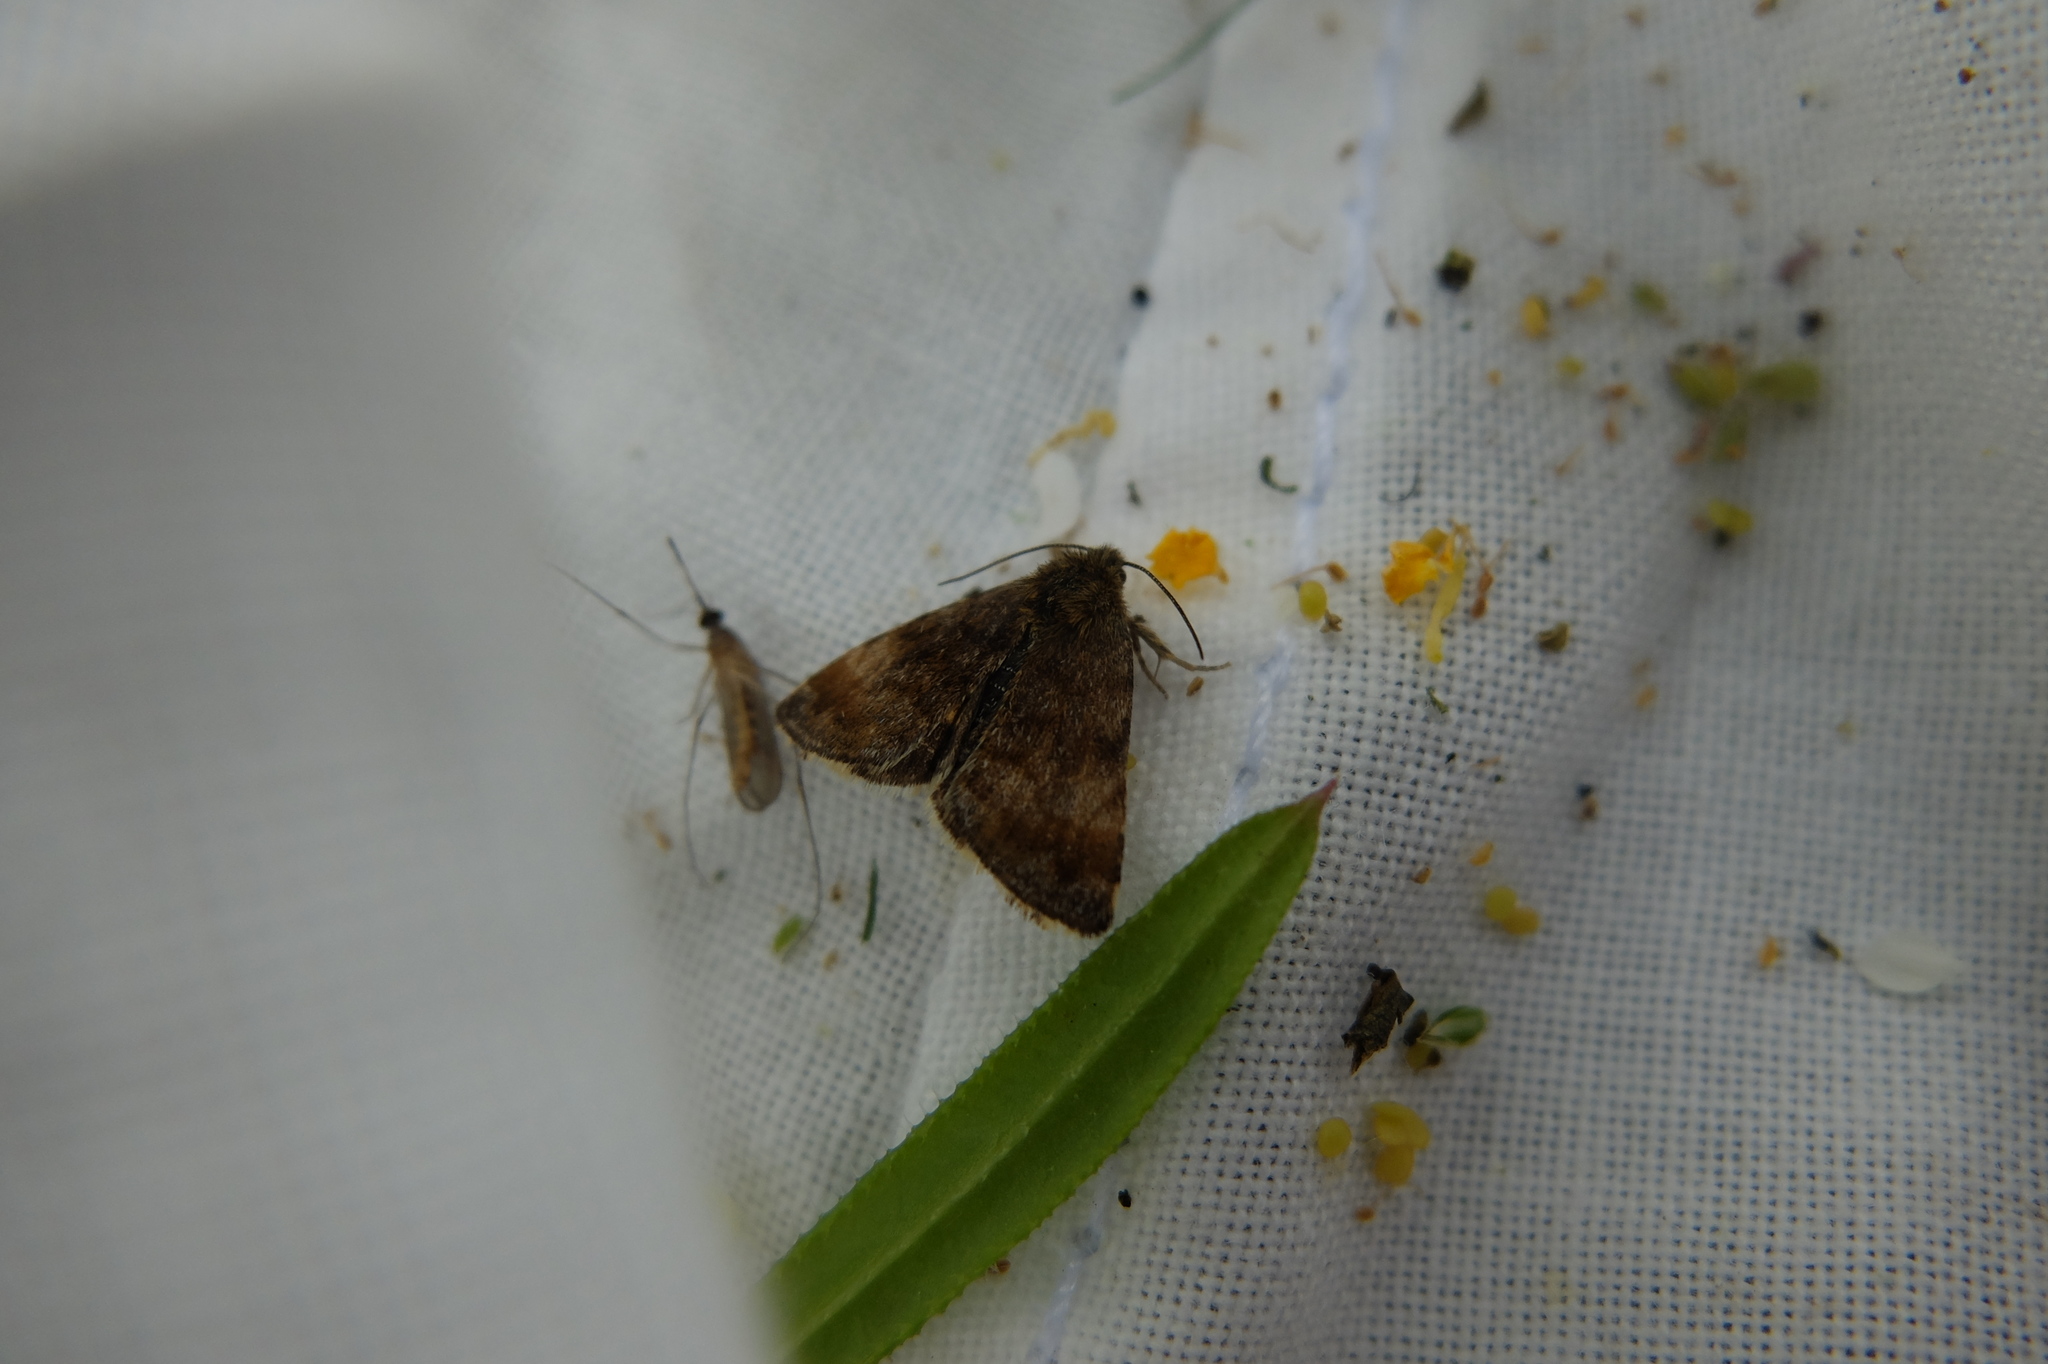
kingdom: Animalia
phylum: Arthropoda
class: Insecta
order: Lepidoptera
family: Noctuidae
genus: Panemeria
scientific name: Panemeria tenebrata
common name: Small yellow underwing
